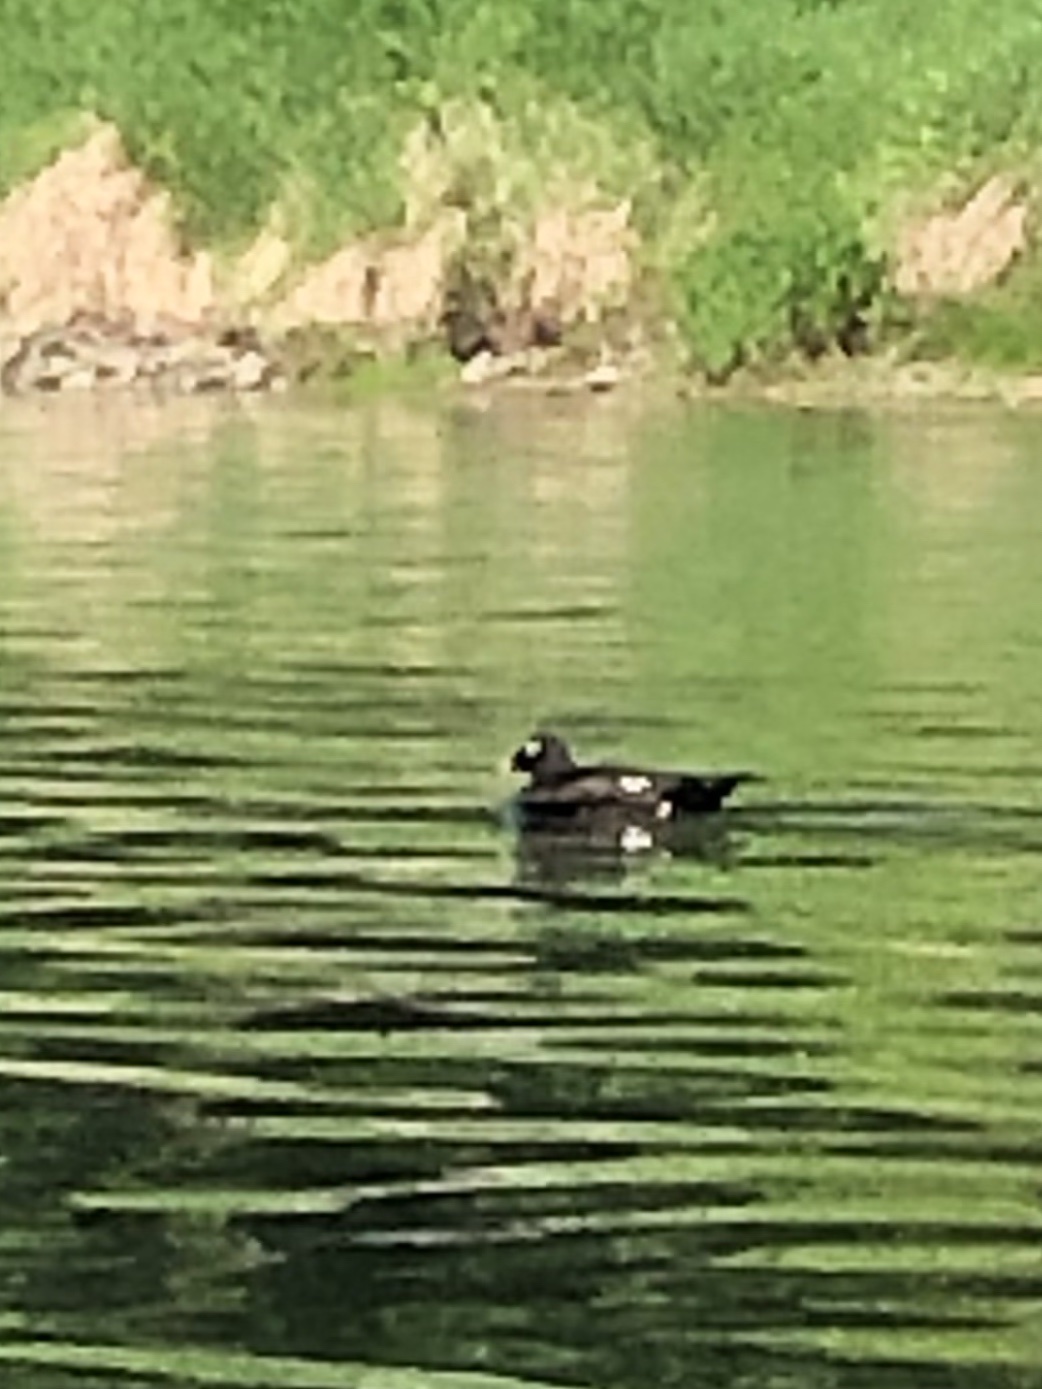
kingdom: Animalia
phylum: Chordata
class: Aves
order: Anseriformes
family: Anatidae
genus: Melanitta
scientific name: Melanitta deglandi
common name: White-winged scoter
